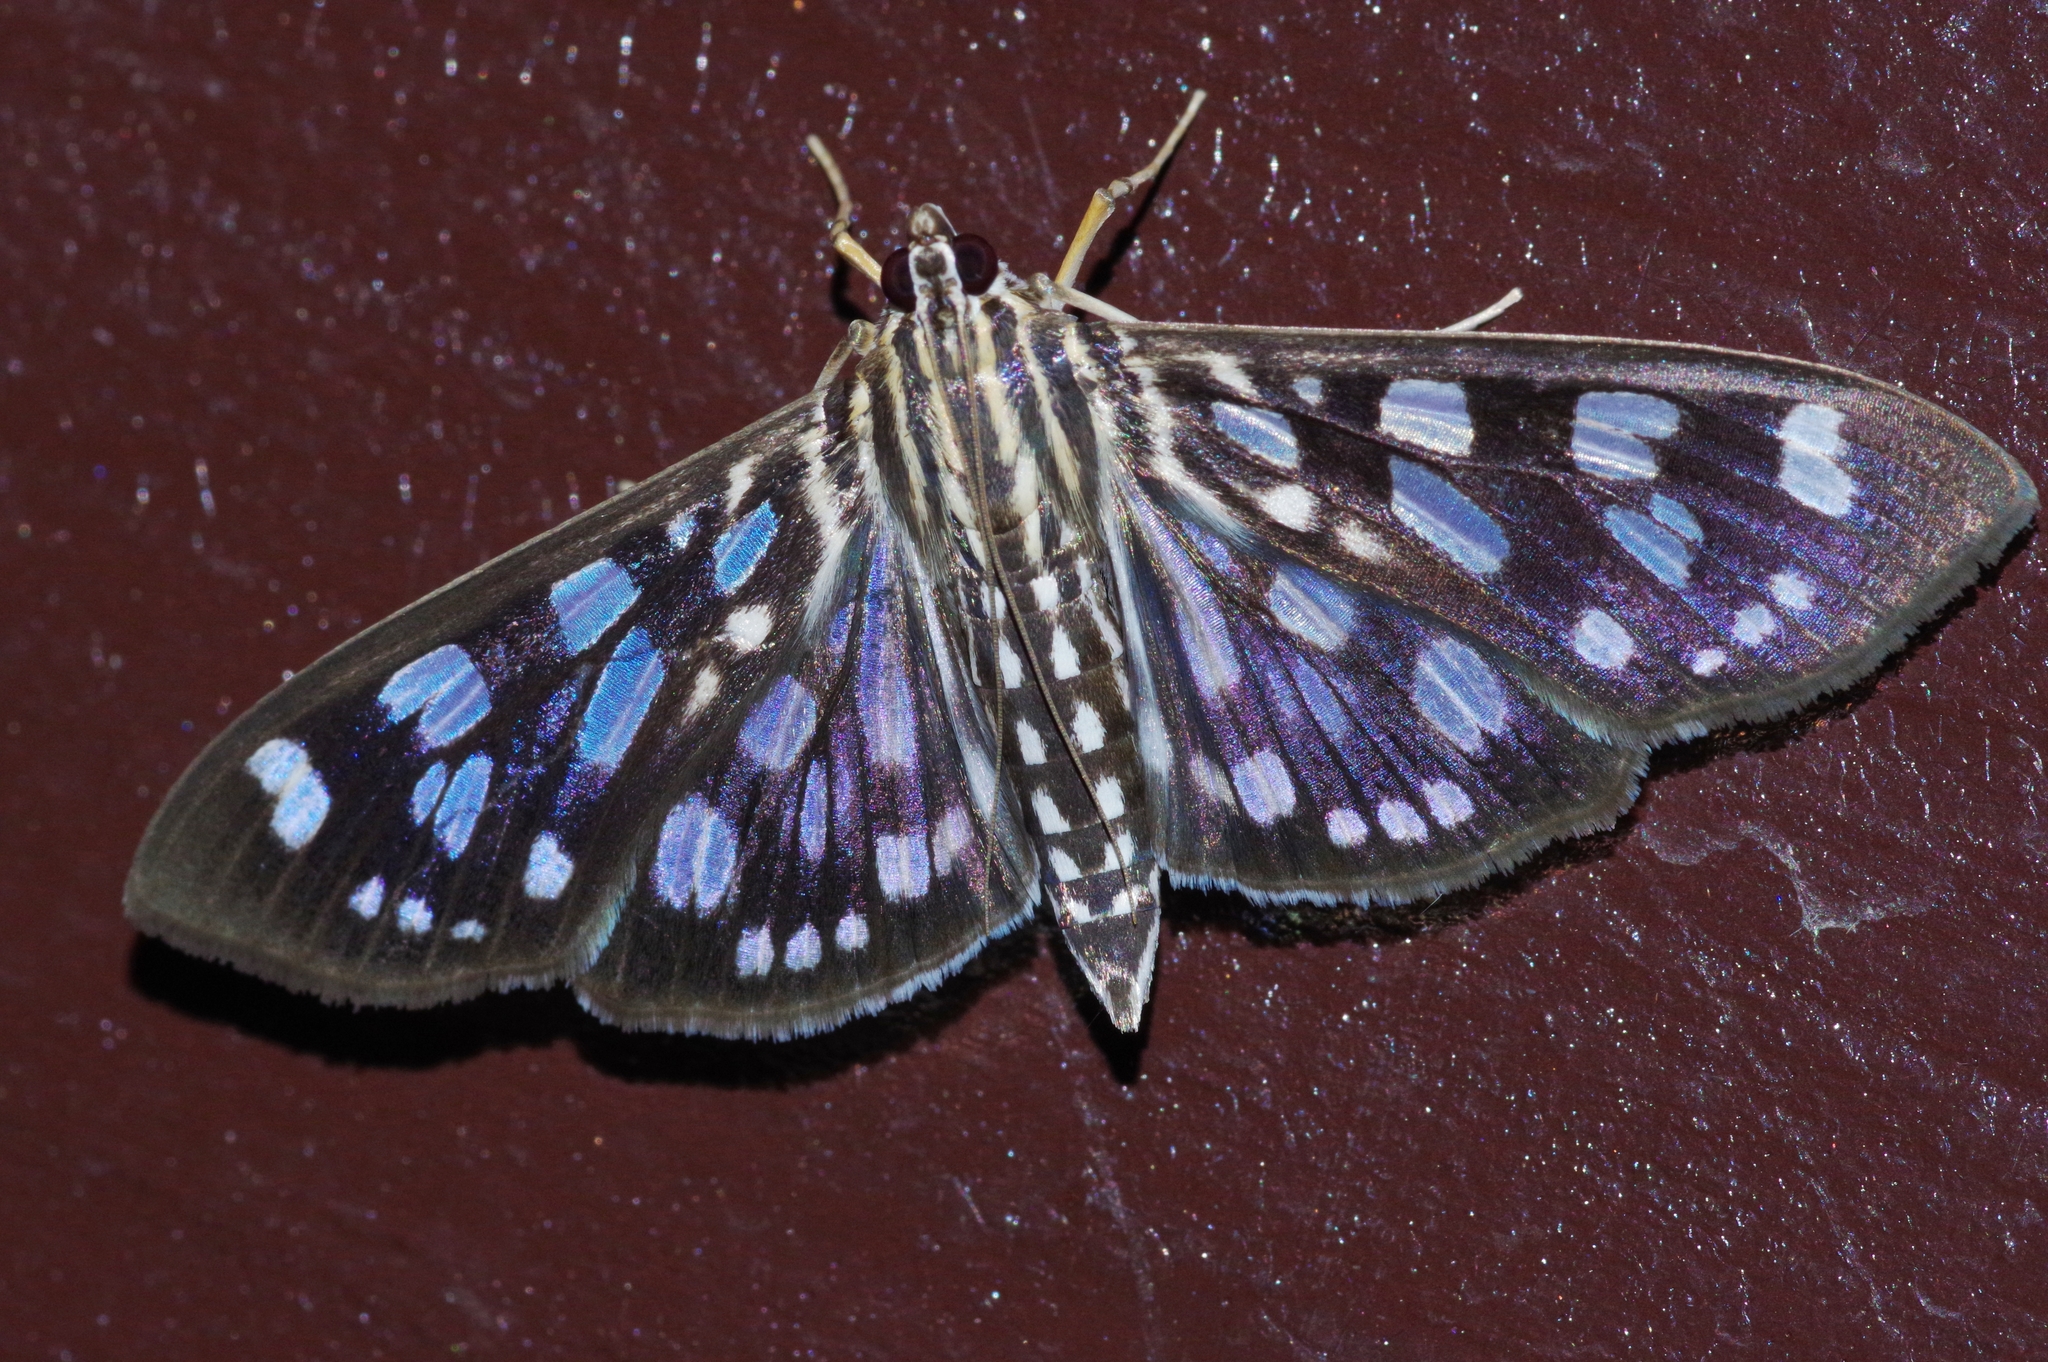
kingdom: Animalia
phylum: Arthropoda
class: Insecta
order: Lepidoptera
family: Crambidae
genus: Pygospila
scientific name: Pygospila tyres
